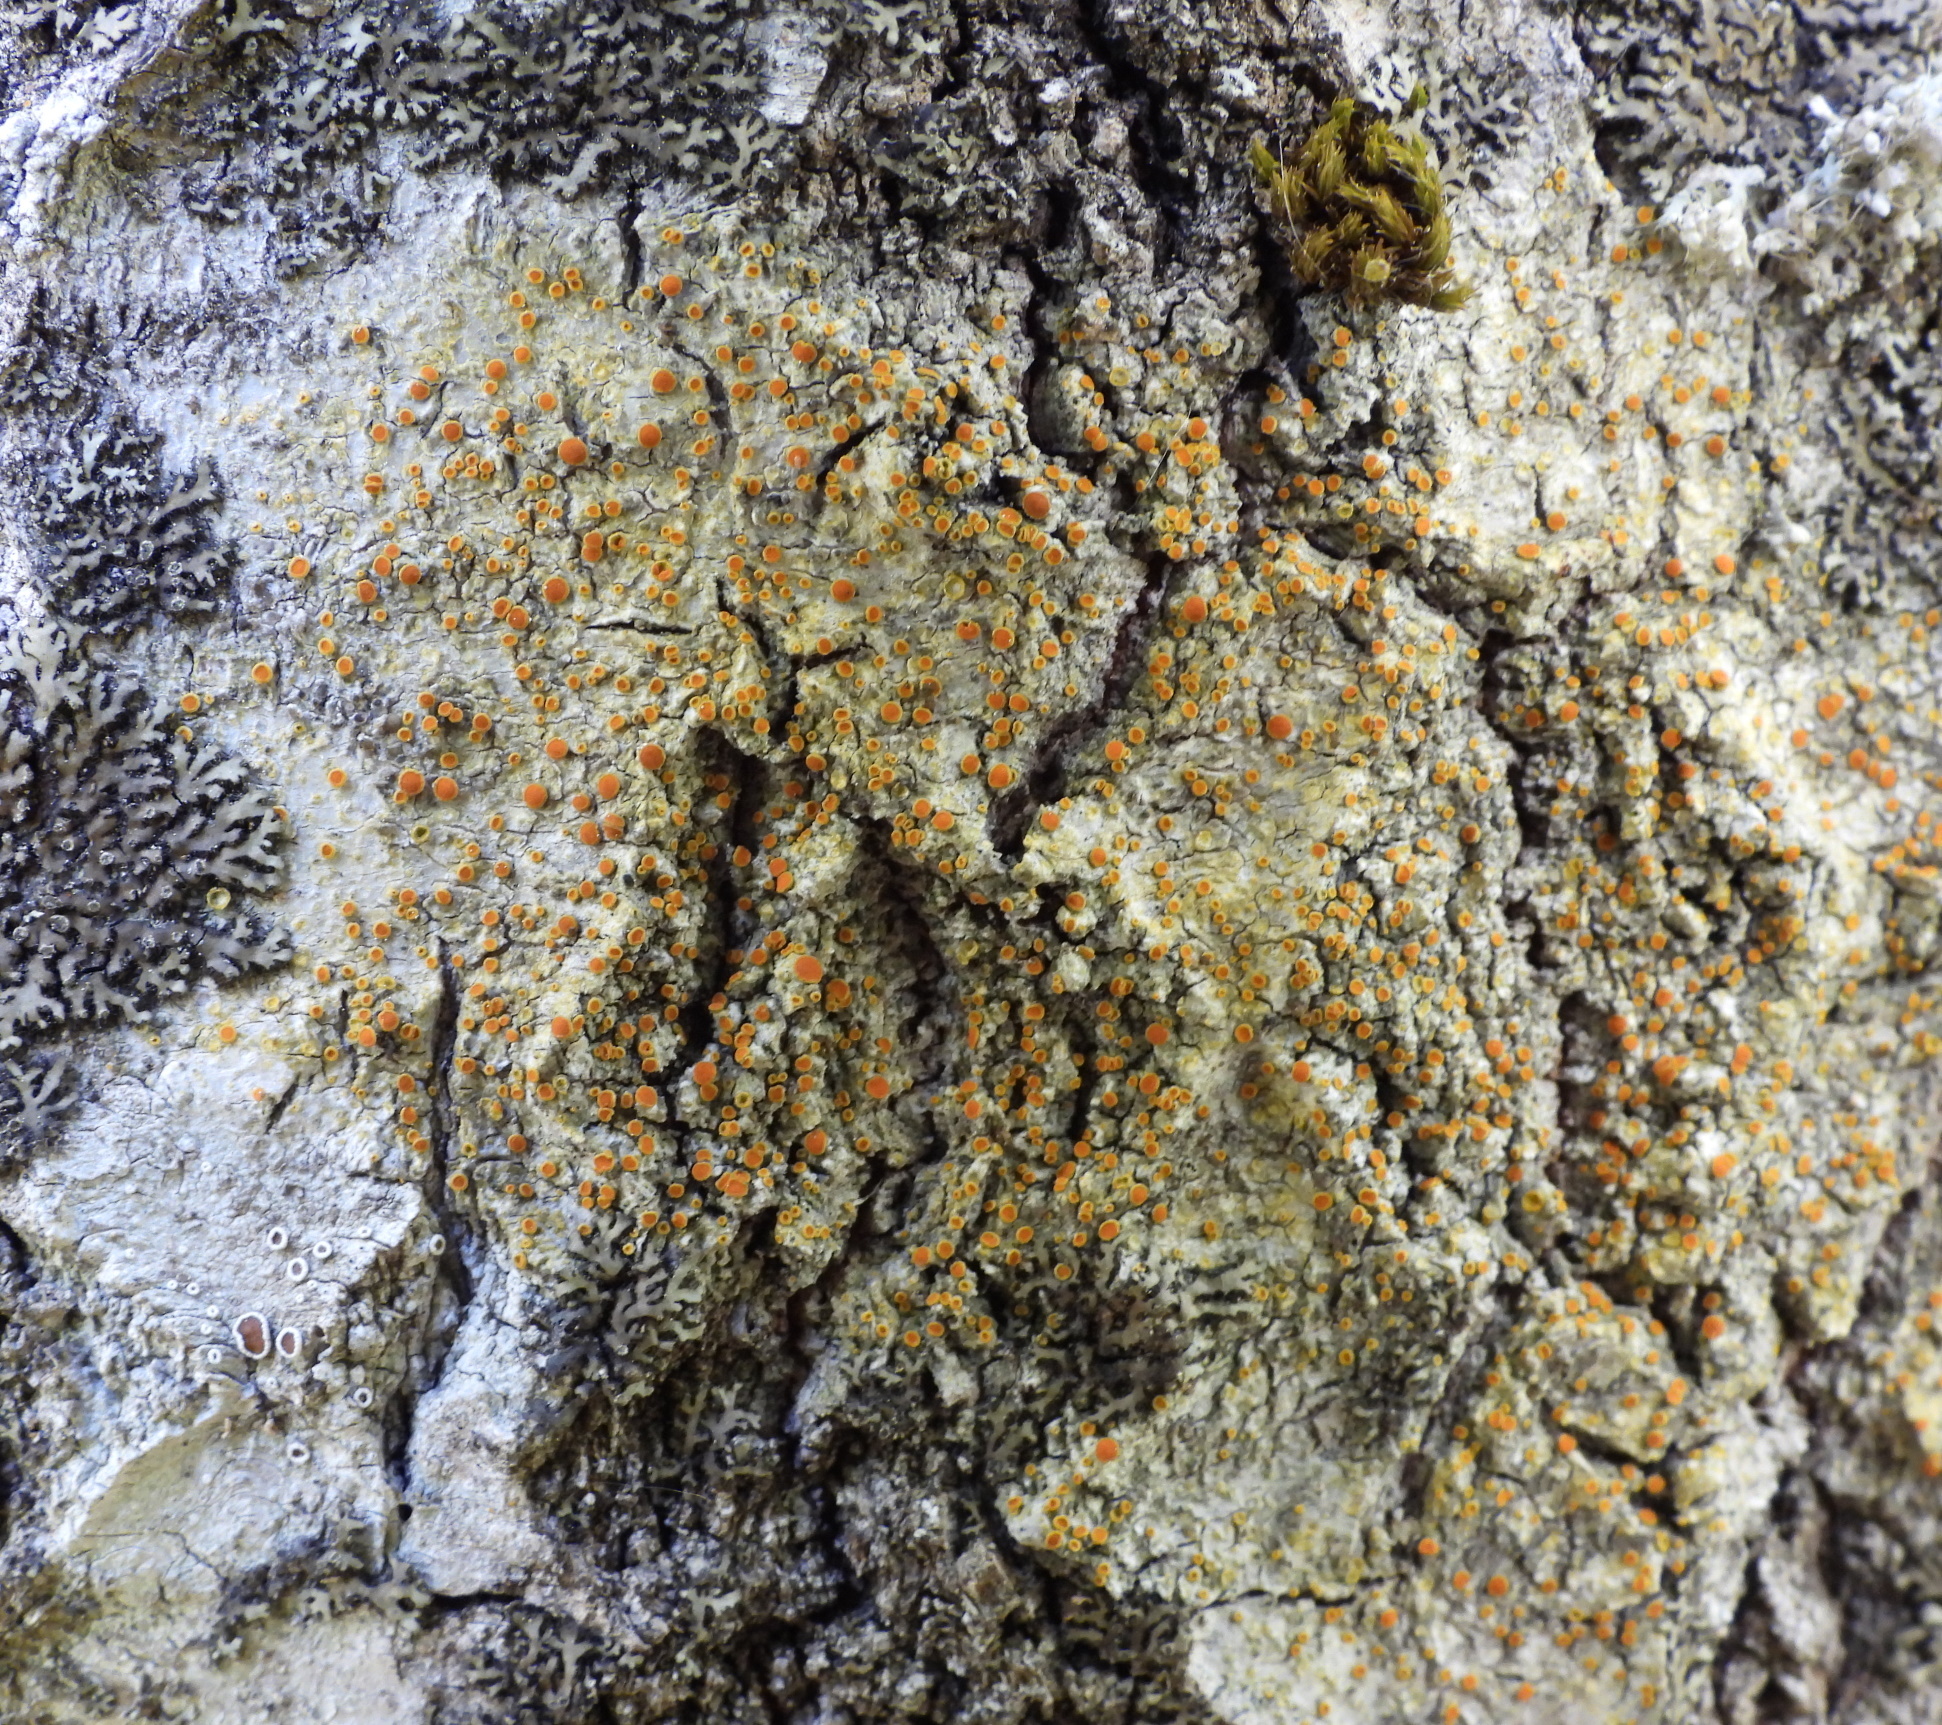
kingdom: Fungi
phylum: Ascomycota
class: Lecanoromycetes
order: Teloschistales
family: Teloschistaceae
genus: Opeltia
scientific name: Opeltia flavorubescens
